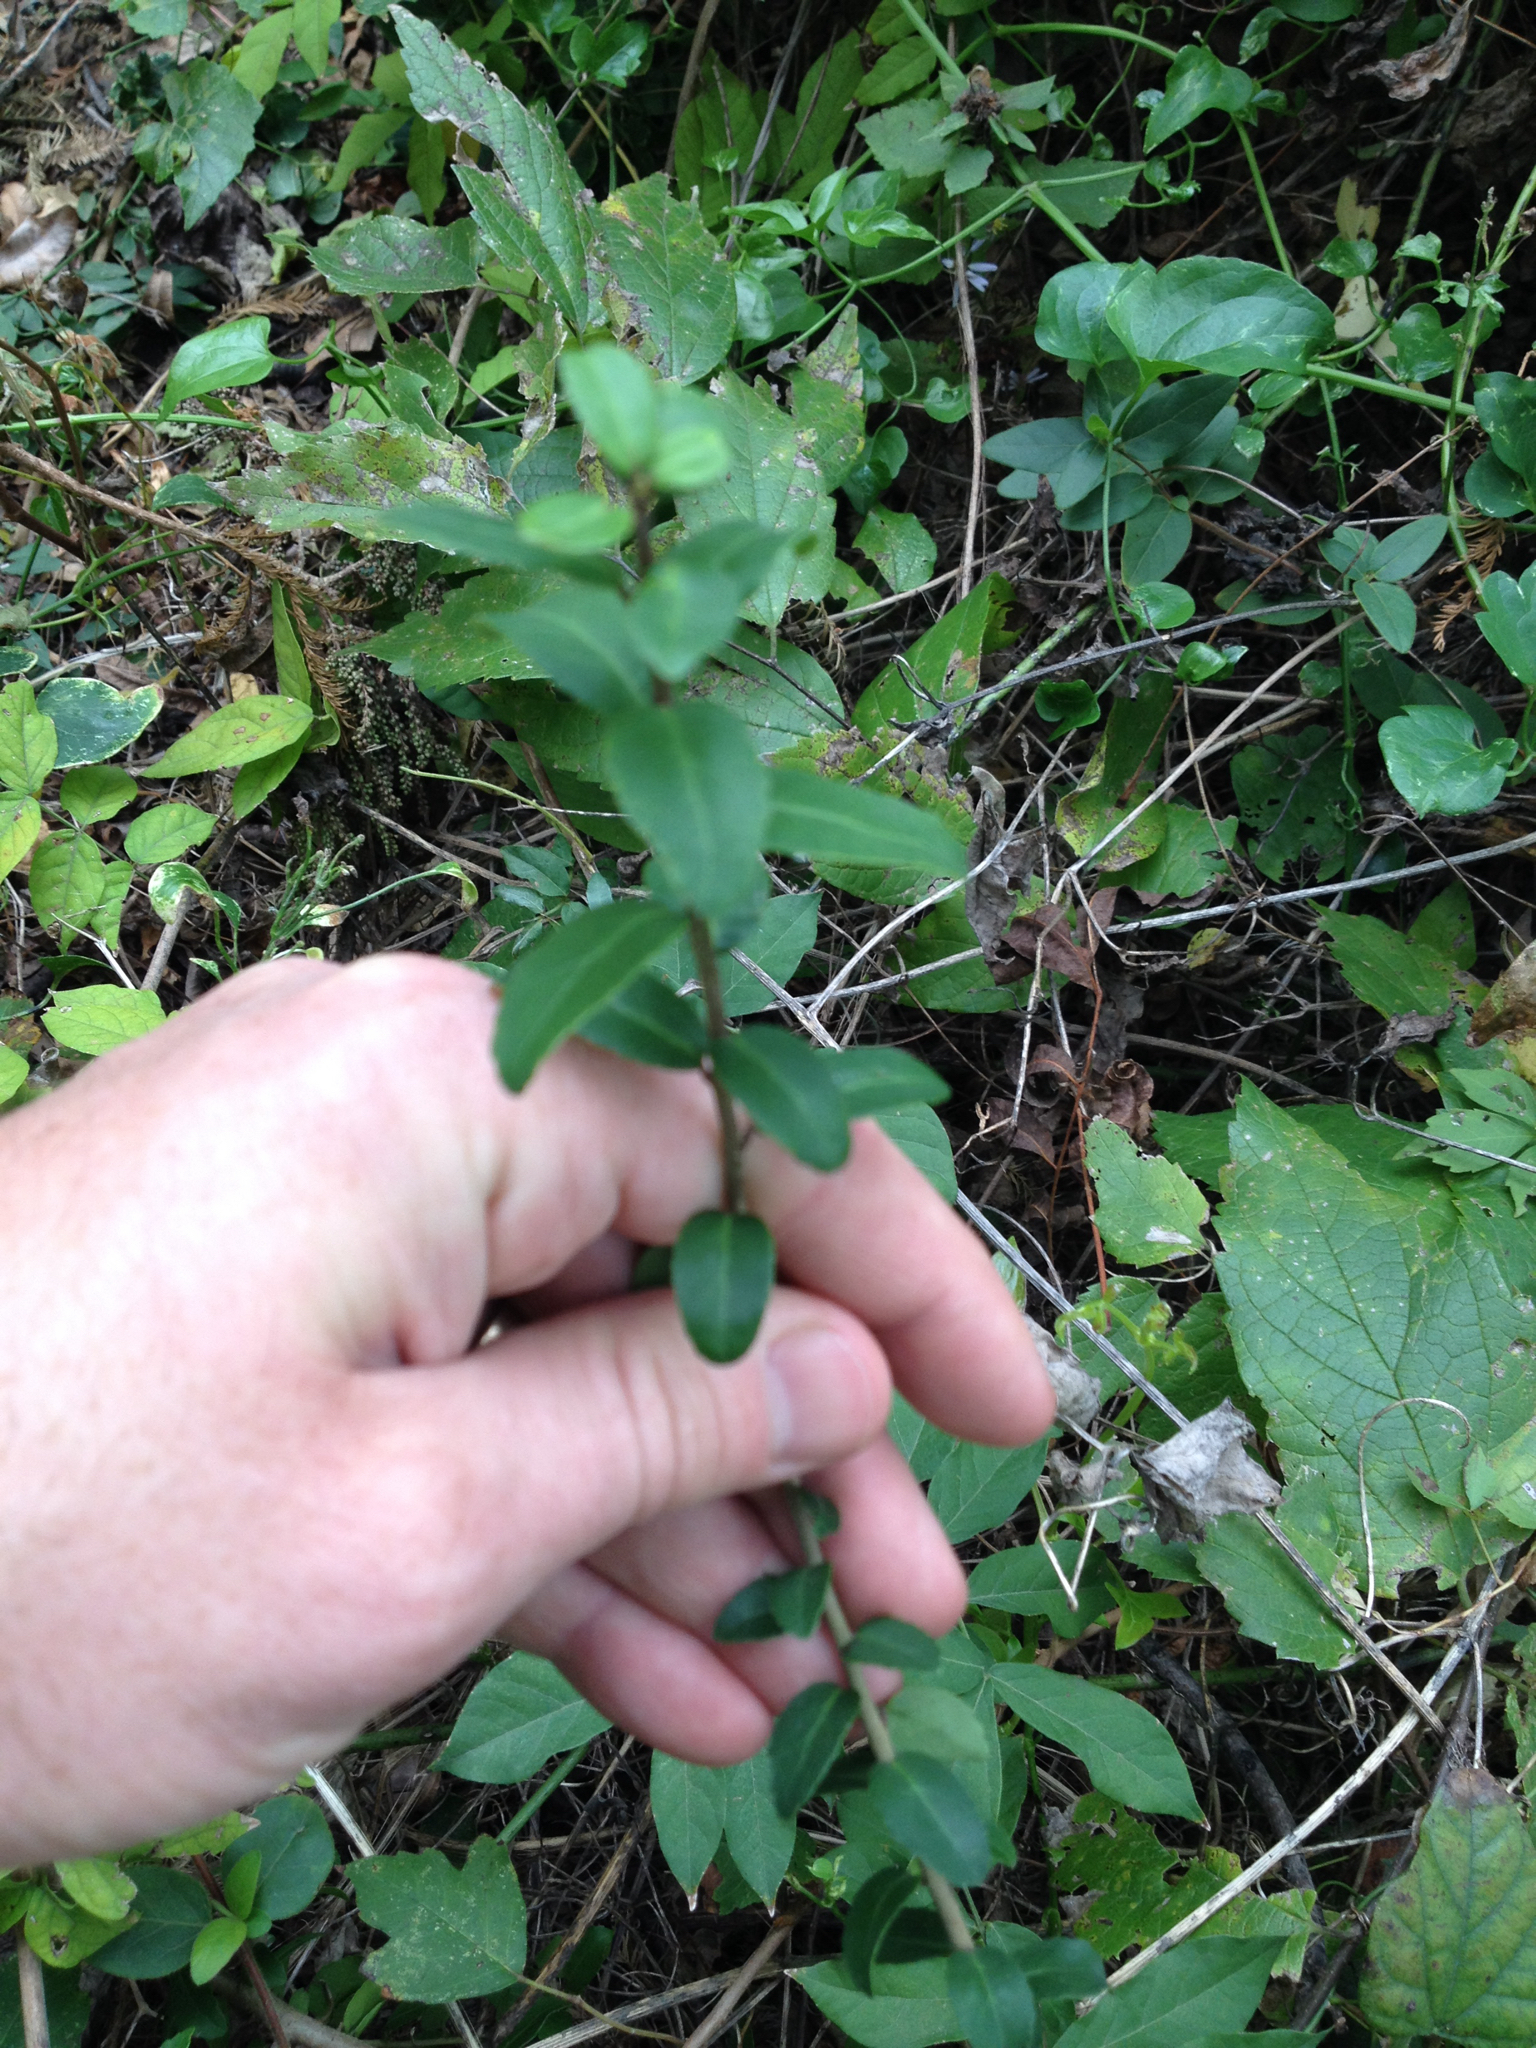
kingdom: Plantae
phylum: Tracheophyta
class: Magnoliopsida
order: Aquifoliales
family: Aquifoliaceae
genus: Ilex
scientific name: Ilex vomitoria
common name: Yaupon holly
